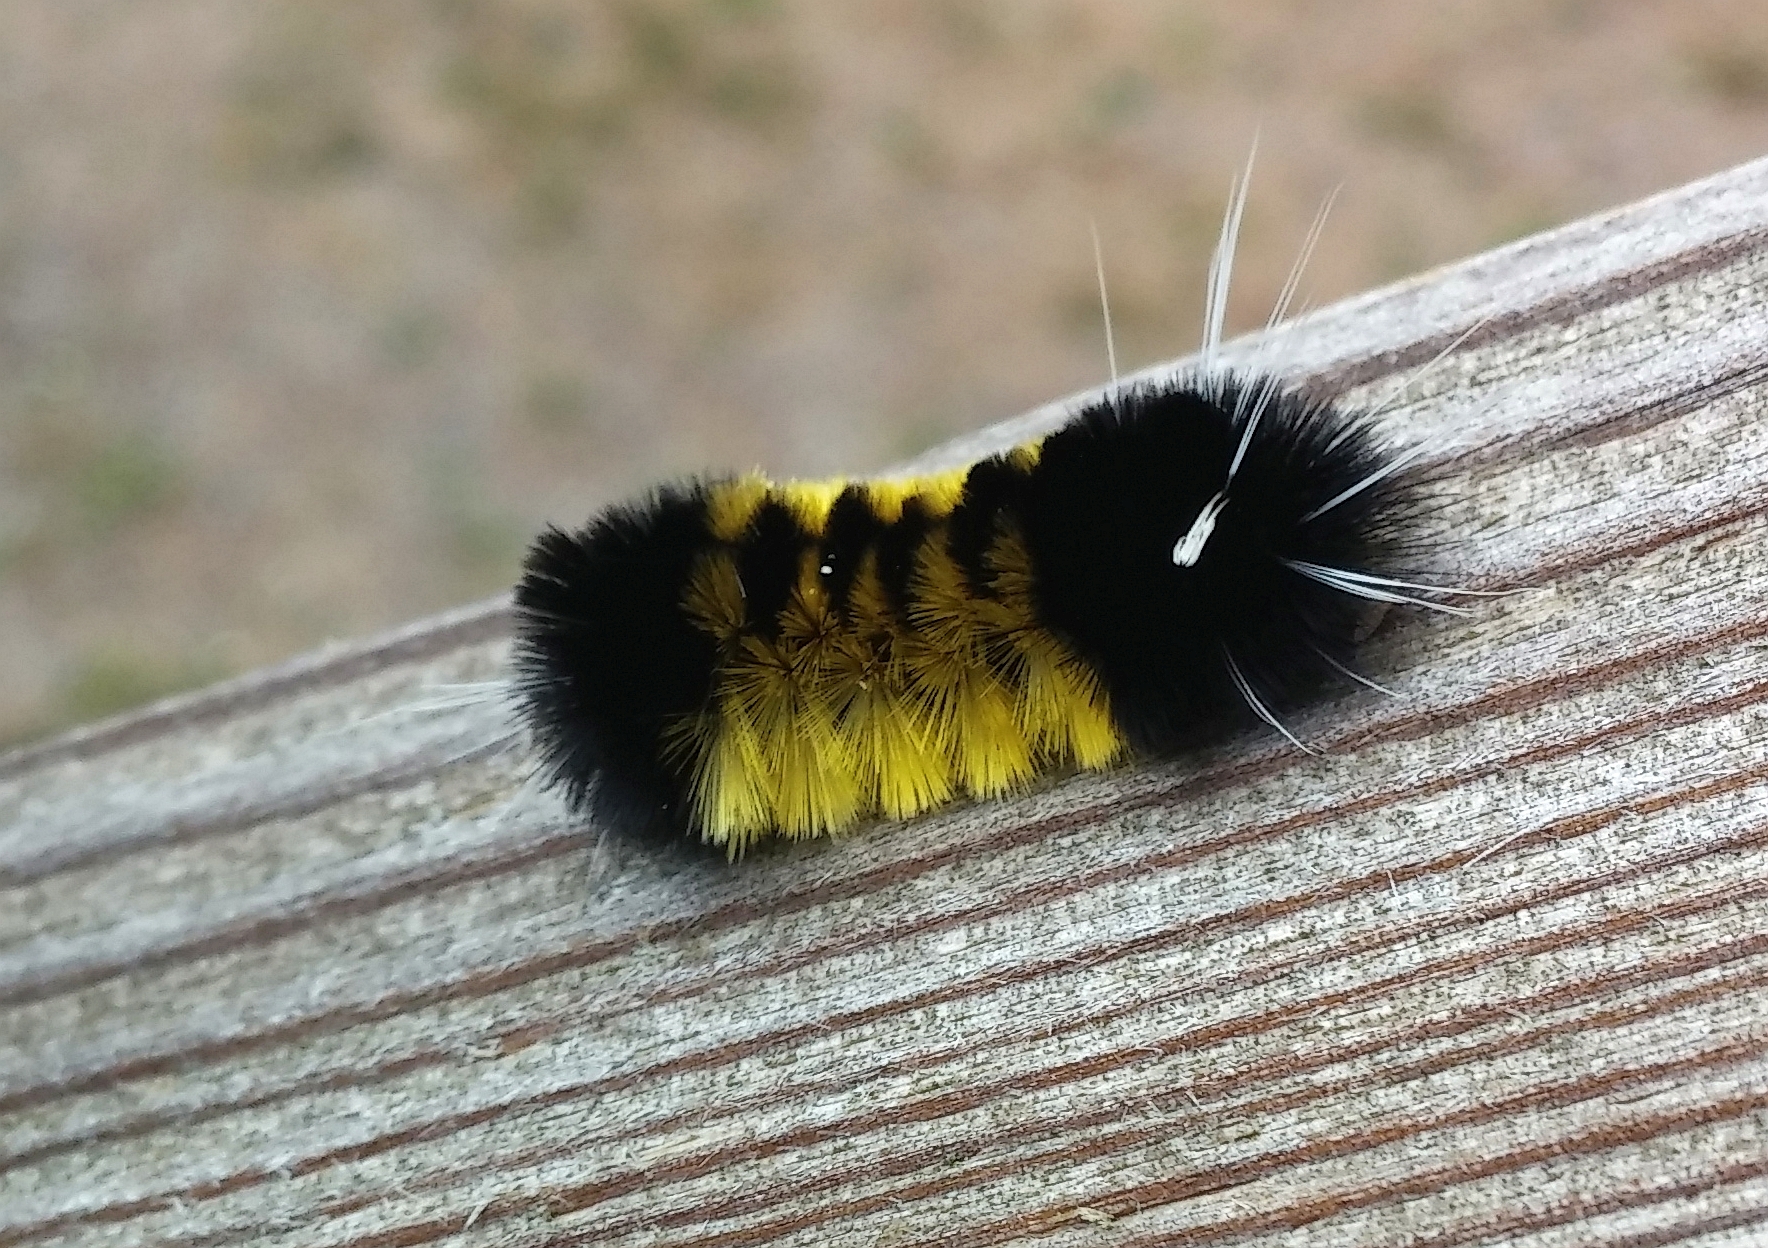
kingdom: Animalia
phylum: Arthropoda
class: Insecta
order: Lepidoptera
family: Erebidae
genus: Lophocampa
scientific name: Lophocampa maculata
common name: Spotted tussock moth
